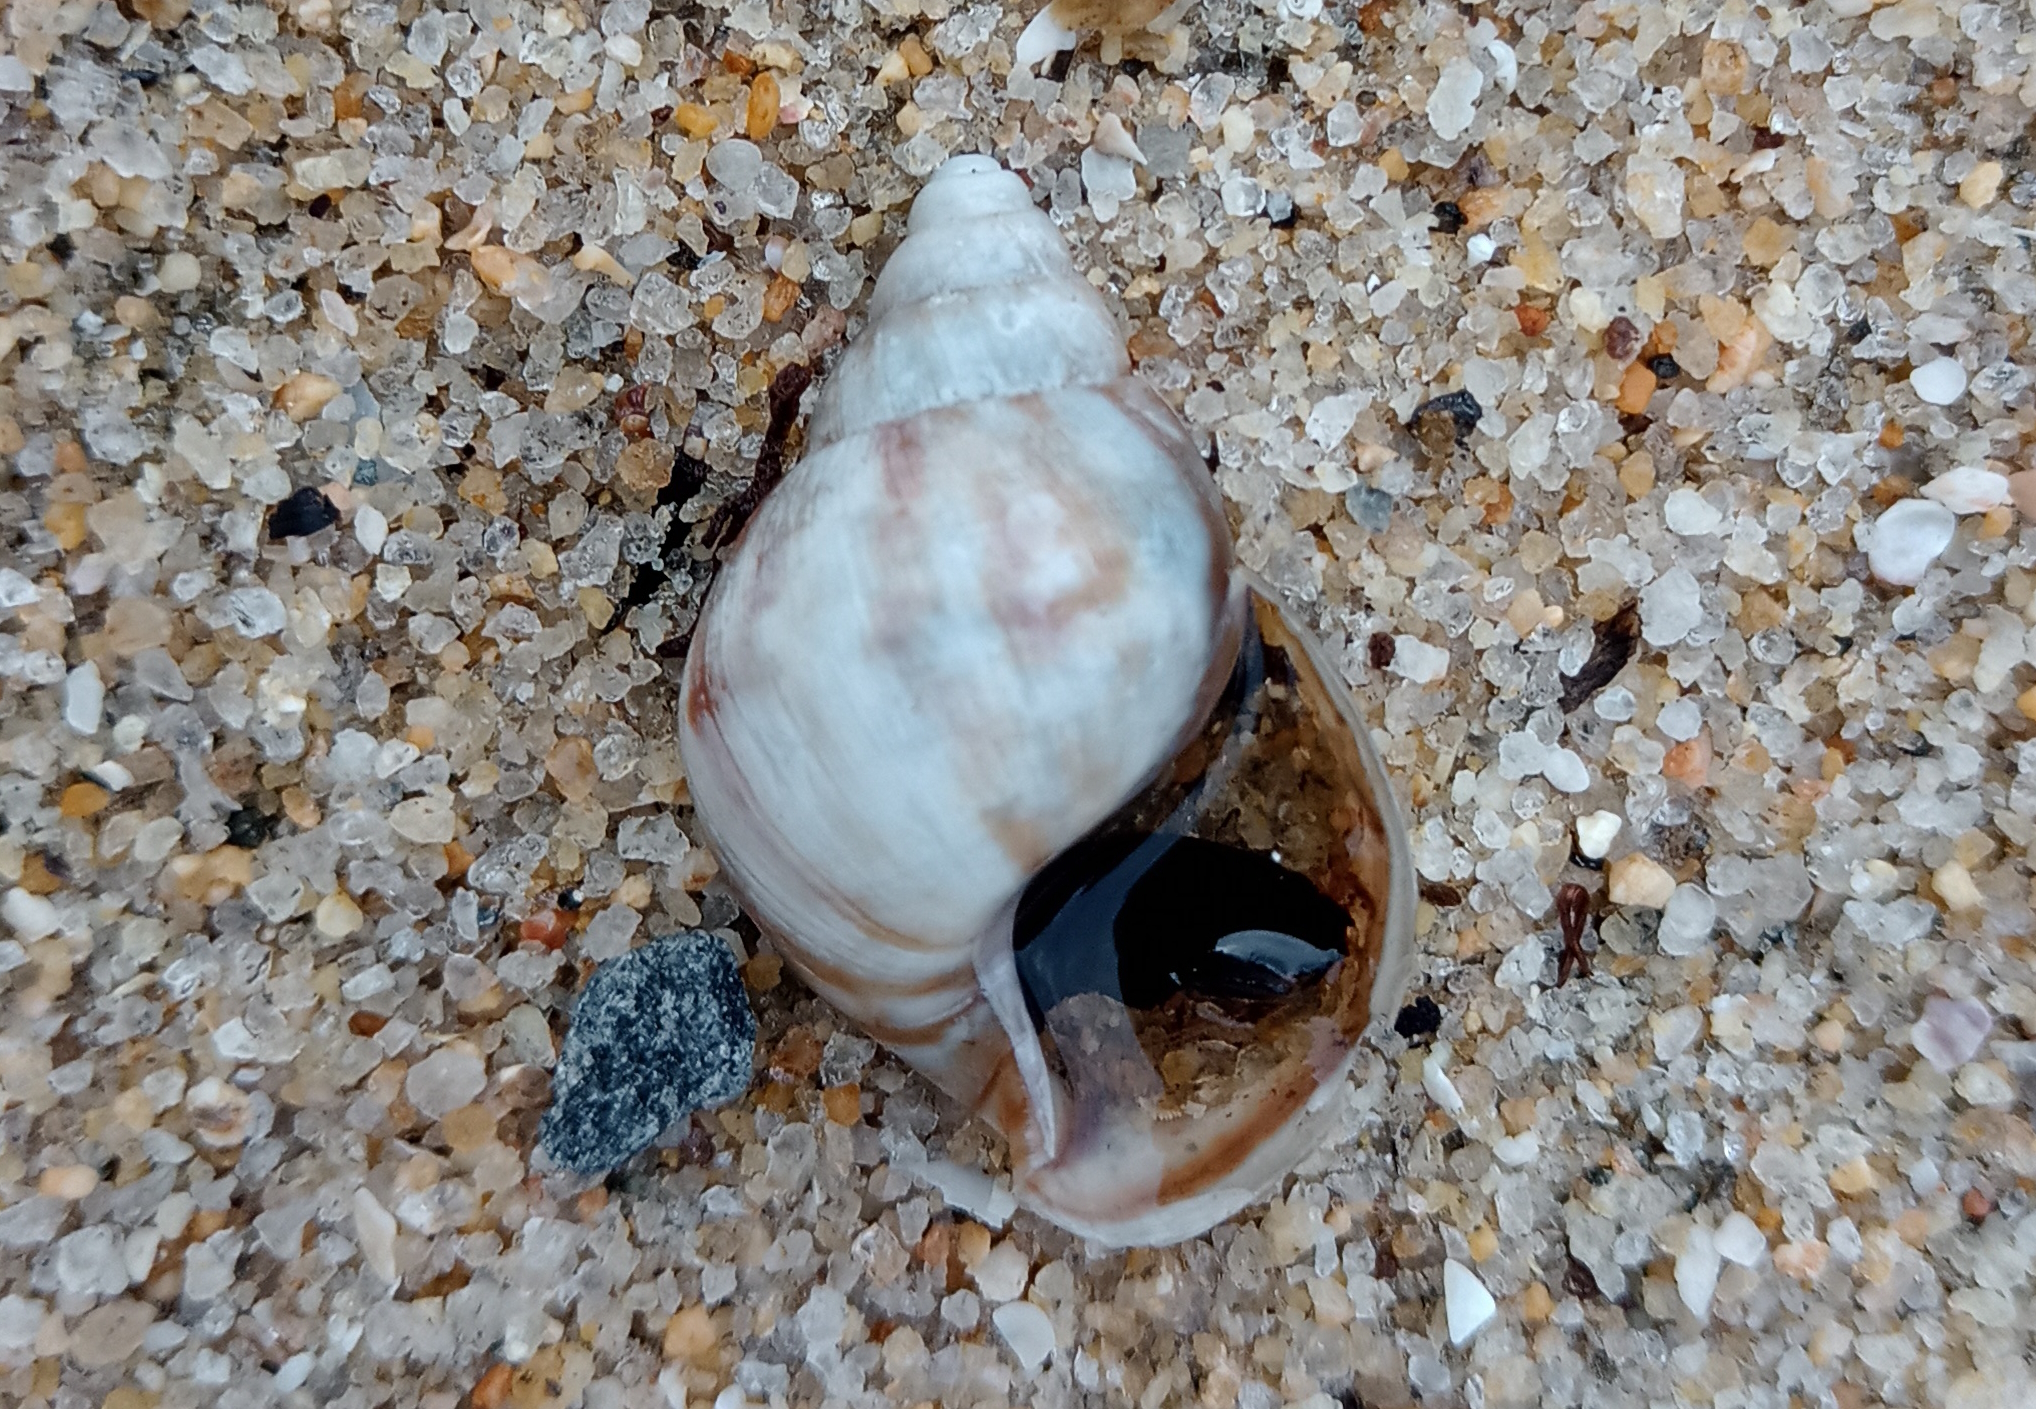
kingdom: Animalia
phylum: Mollusca
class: Gastropoda
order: Stylommatophora
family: Achatinidae
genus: Lissachatina
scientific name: Lissachatina fulica
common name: Giant african snail
